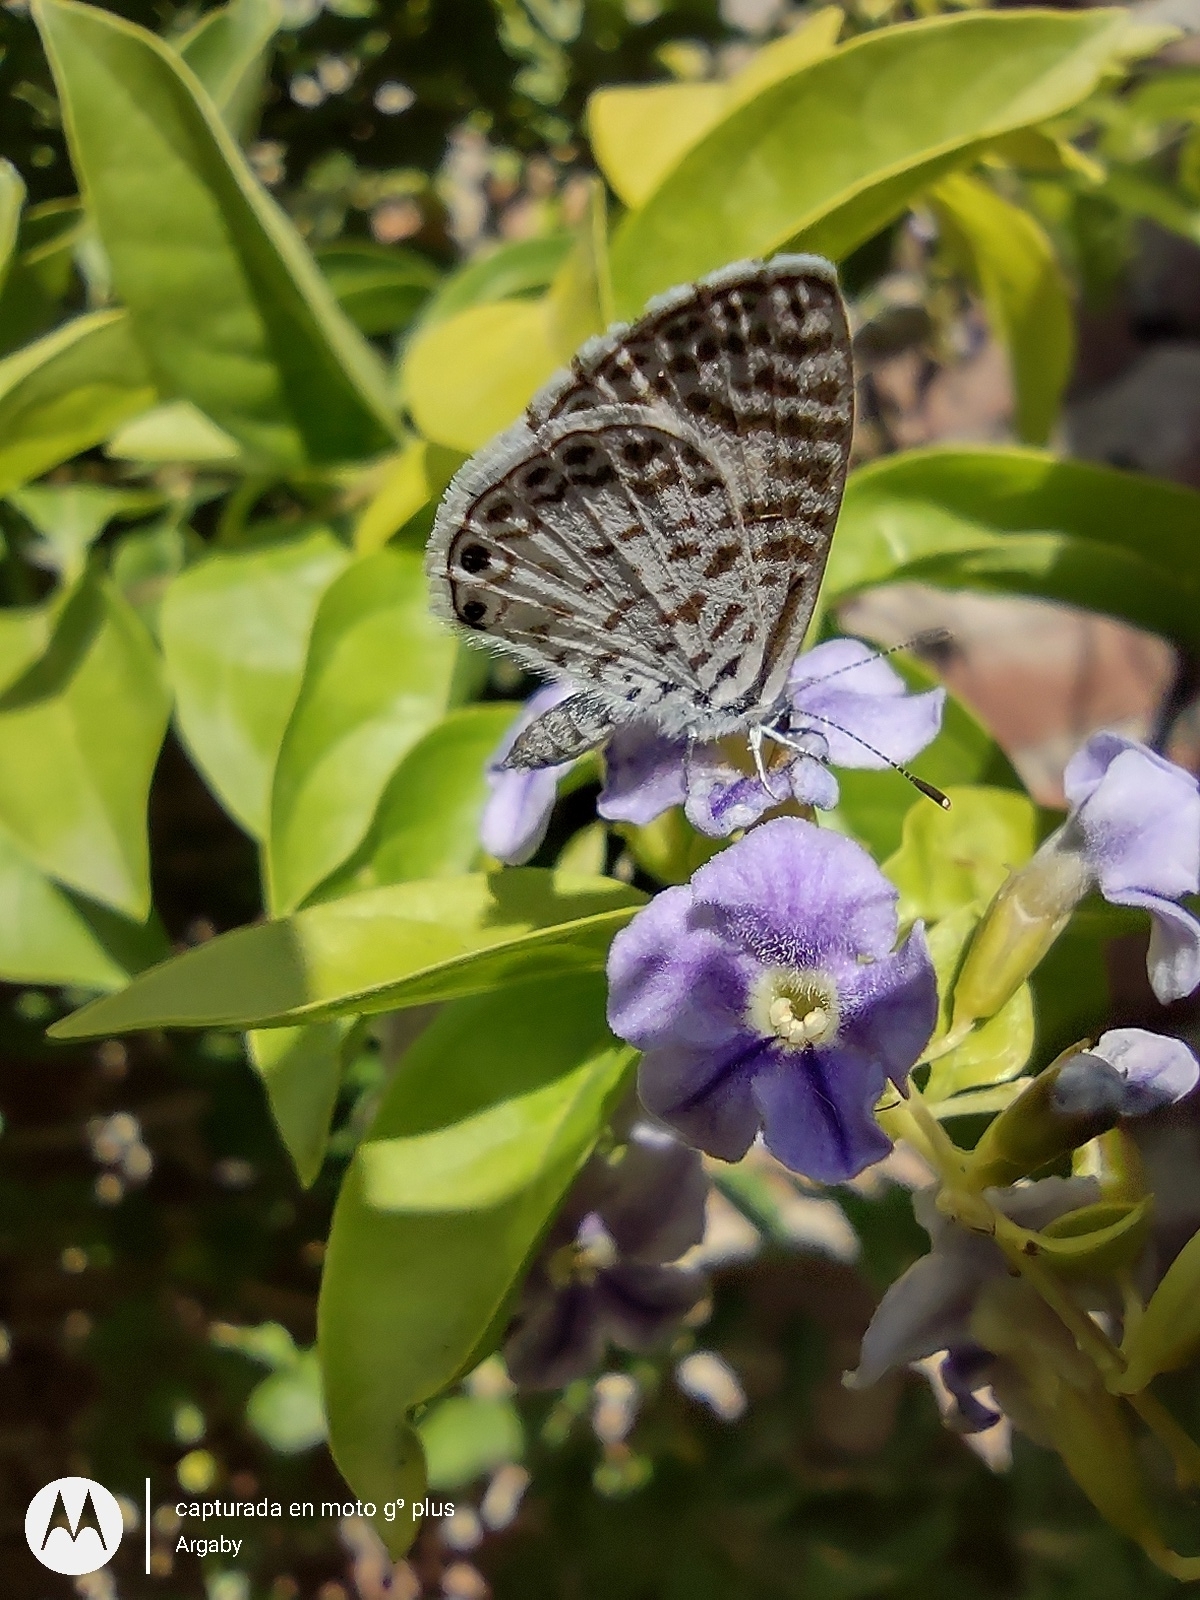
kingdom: Animalia
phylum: Arthropoda
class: Insecta
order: Lepidoptera
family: Lycaenidae
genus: Leptotes
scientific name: Leptotes cassius
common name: Cassius blue
